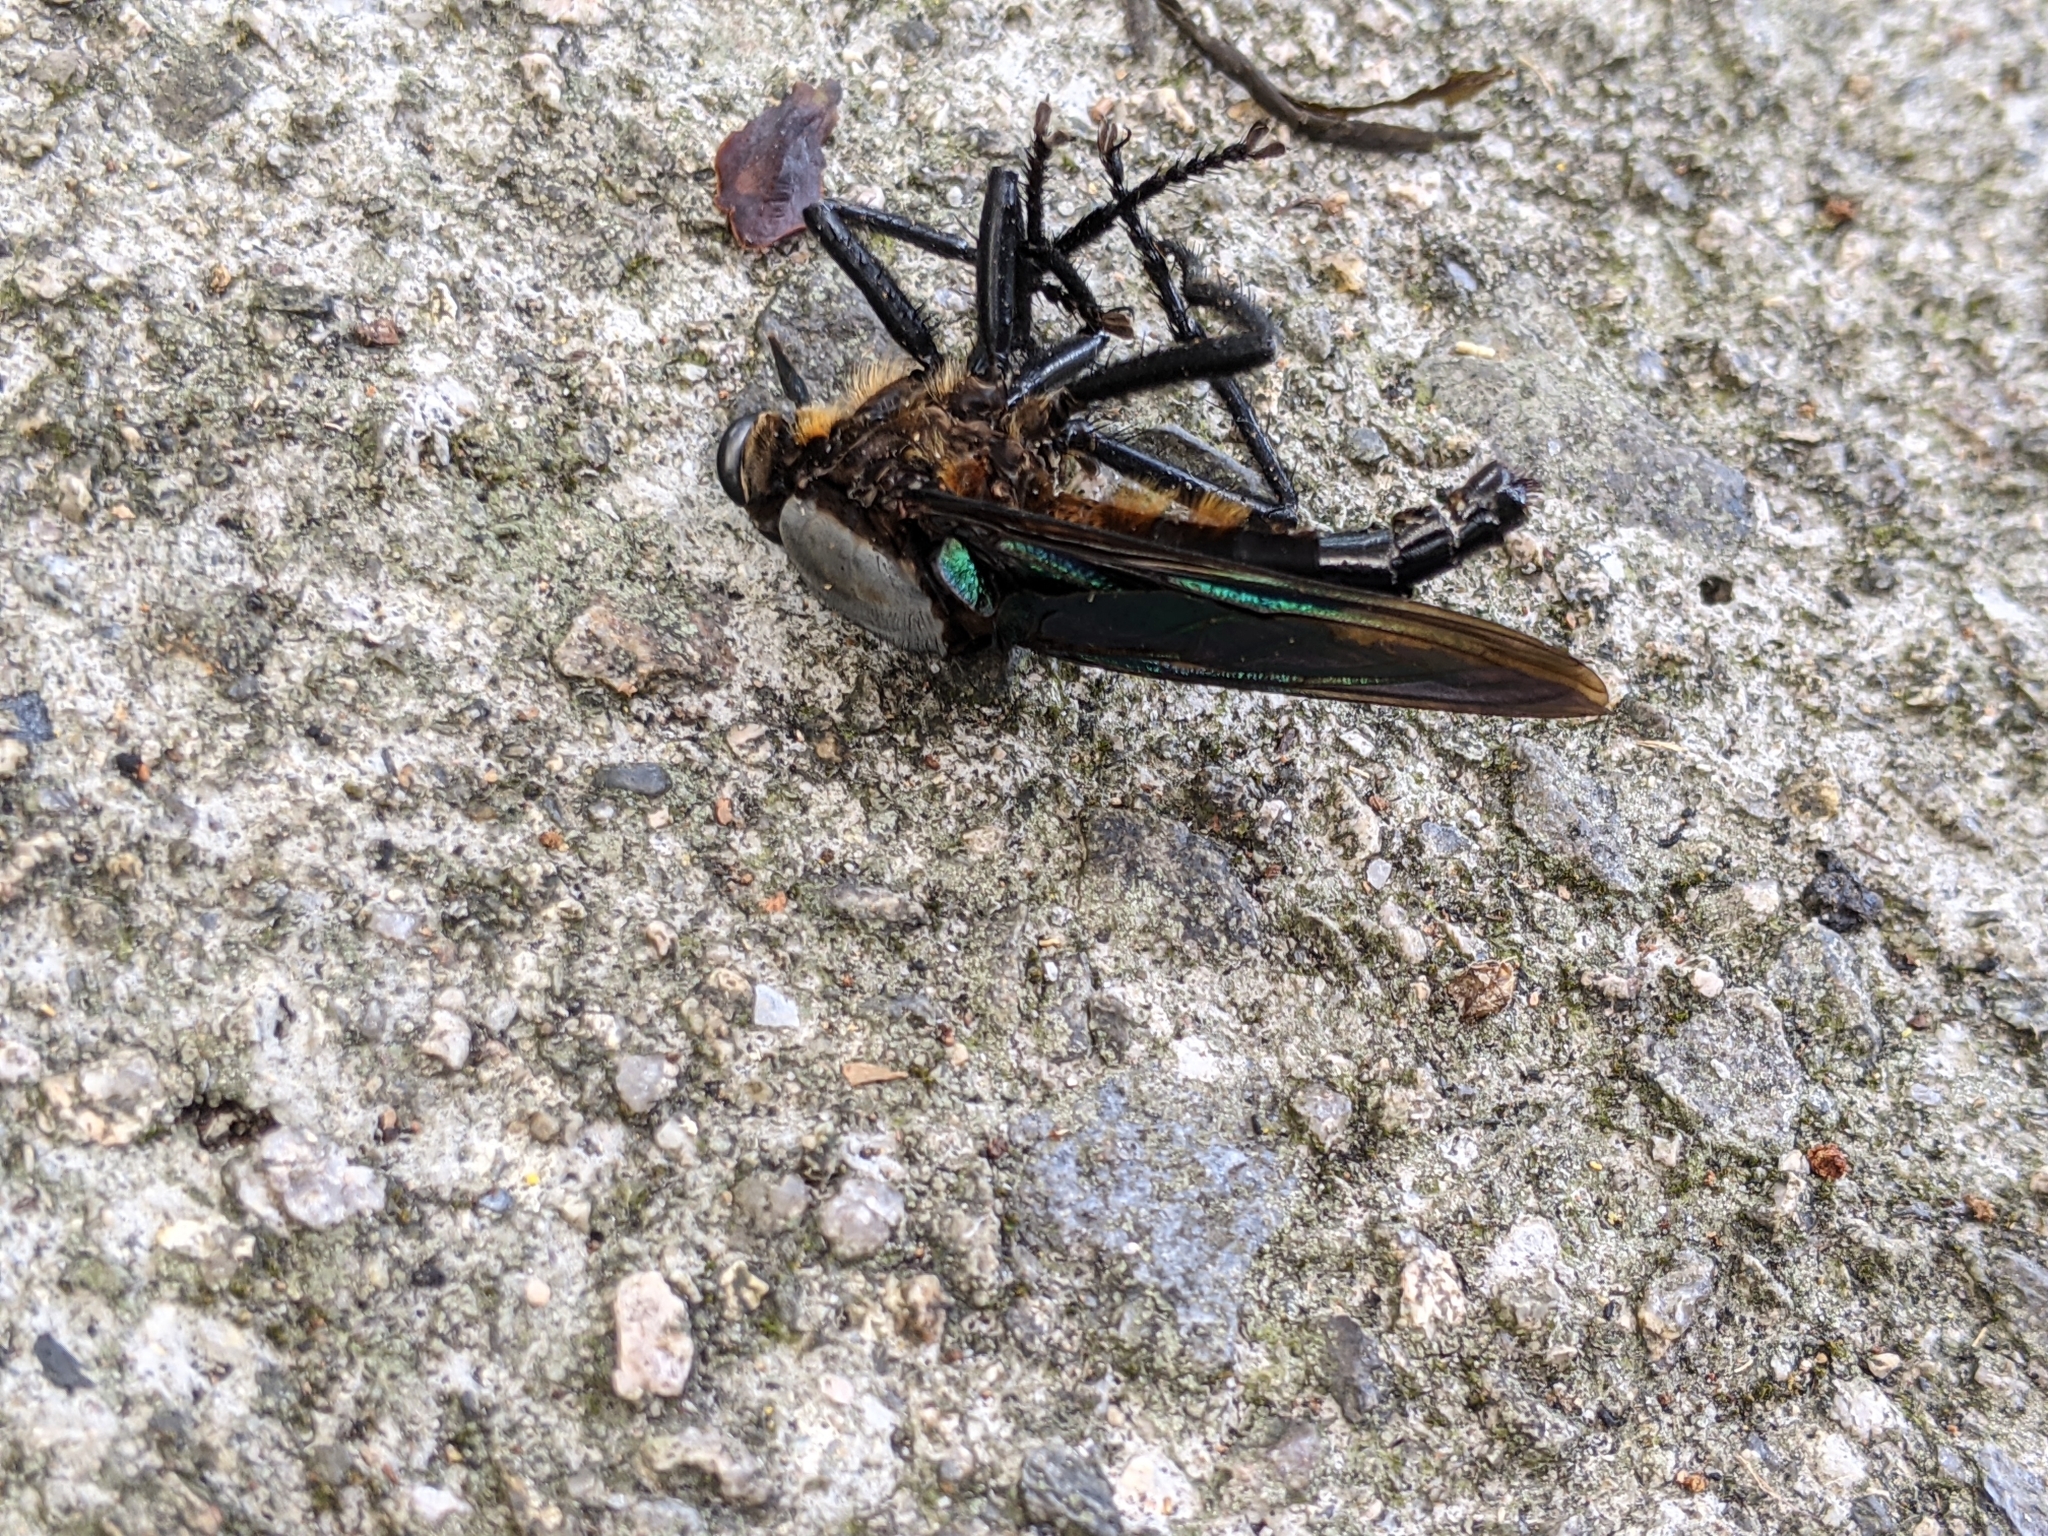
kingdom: Animalia
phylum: Arthropoda
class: Insecta
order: Diptera
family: Asilidae
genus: Microstylum
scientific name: Microstylum oberthurii
